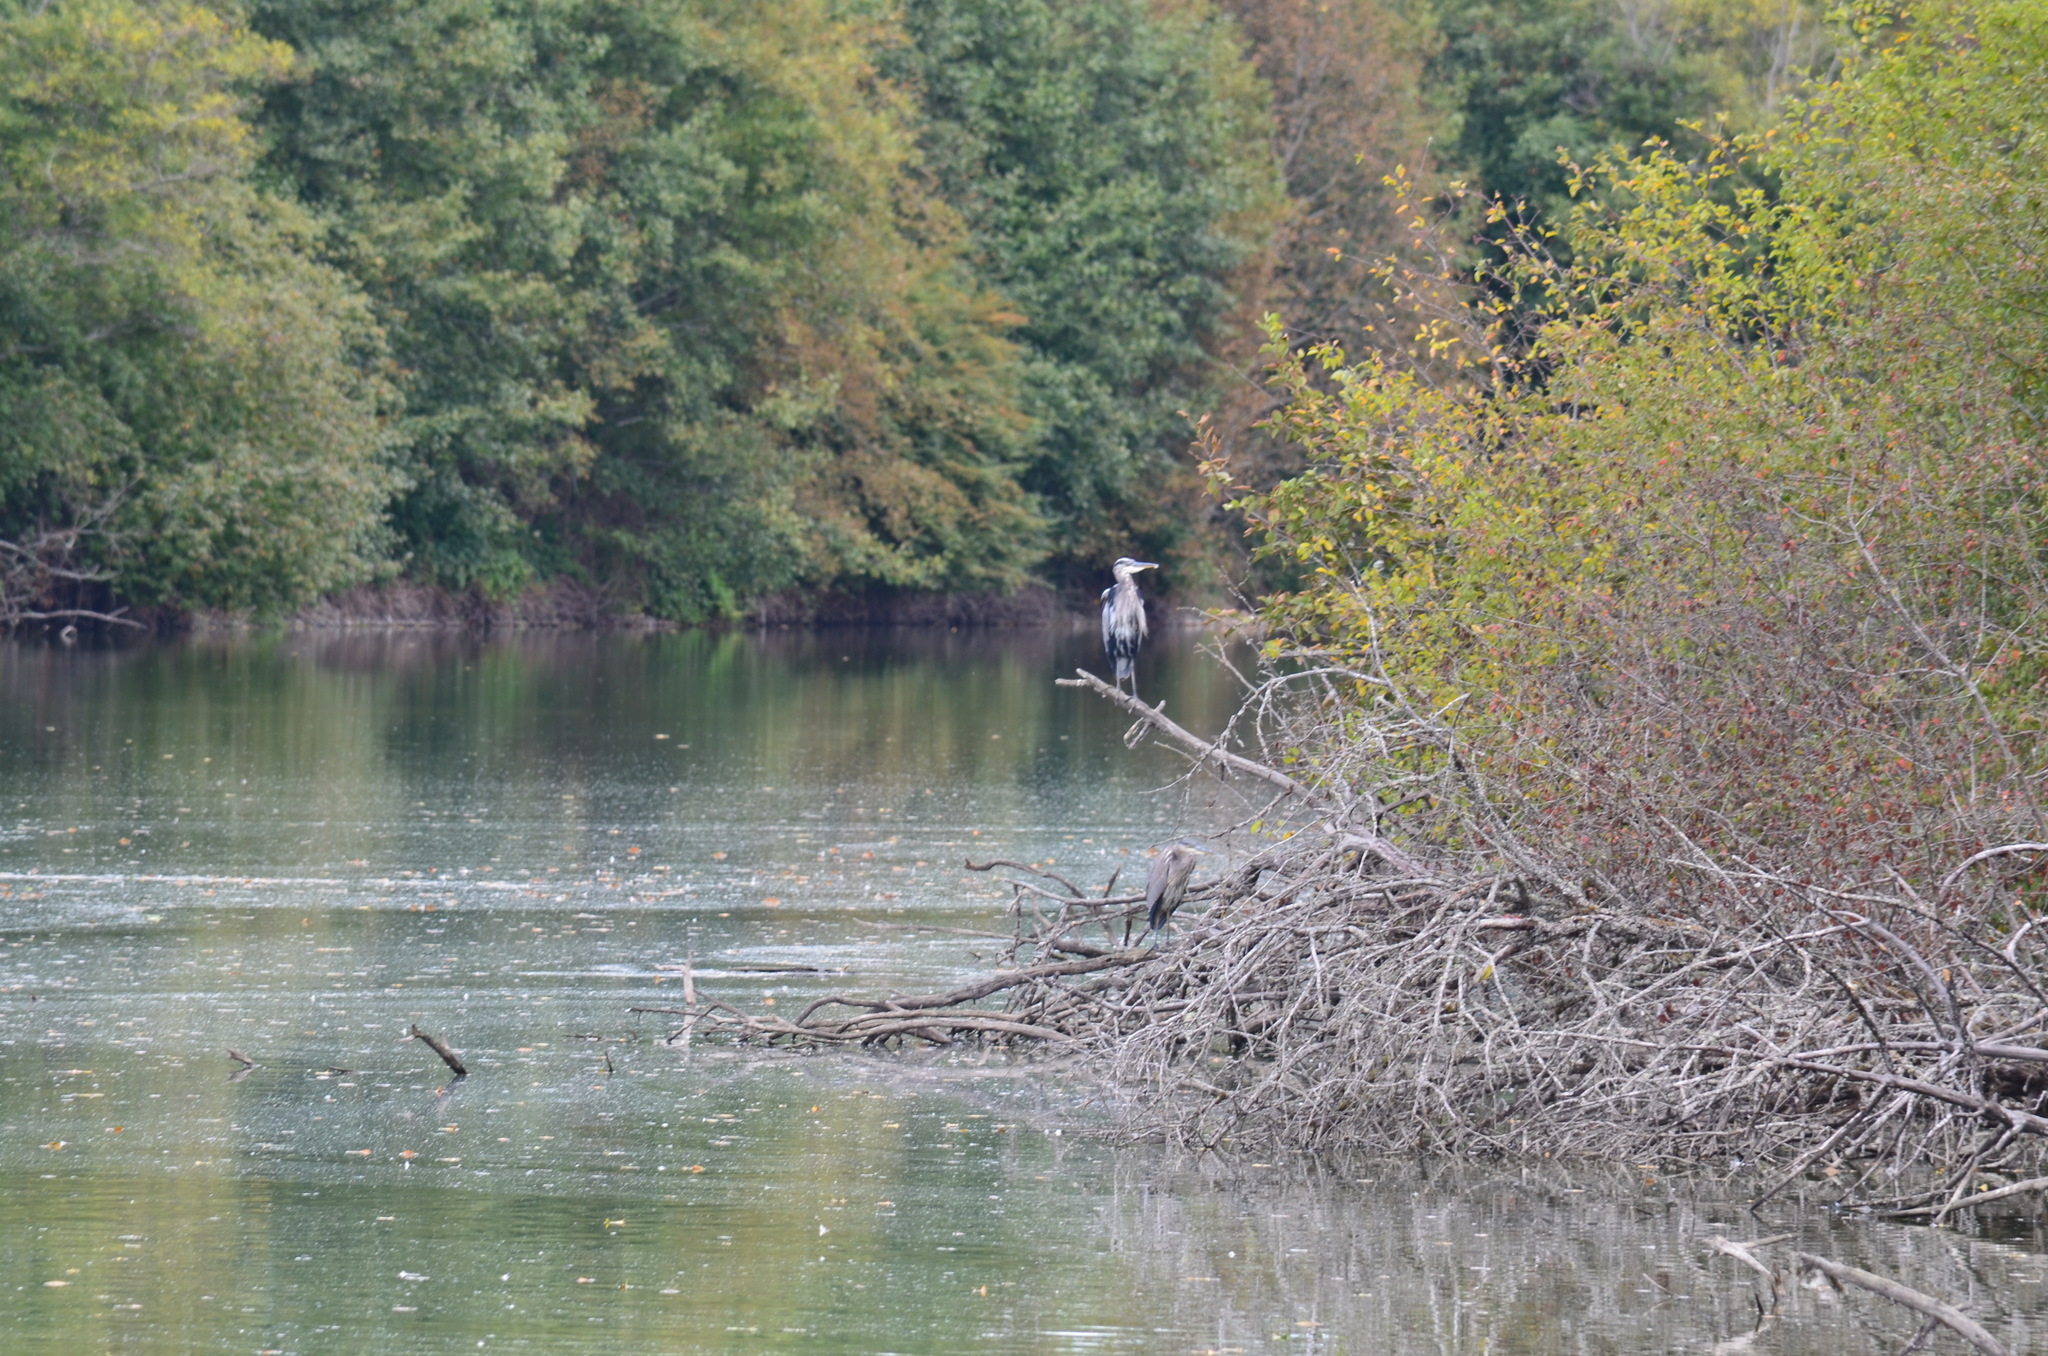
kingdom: Animalia
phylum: Chordata
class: Aves
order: Pelecaniformes
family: Ardeidae
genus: Ardea
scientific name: Ardea herodias
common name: Great blue heron
